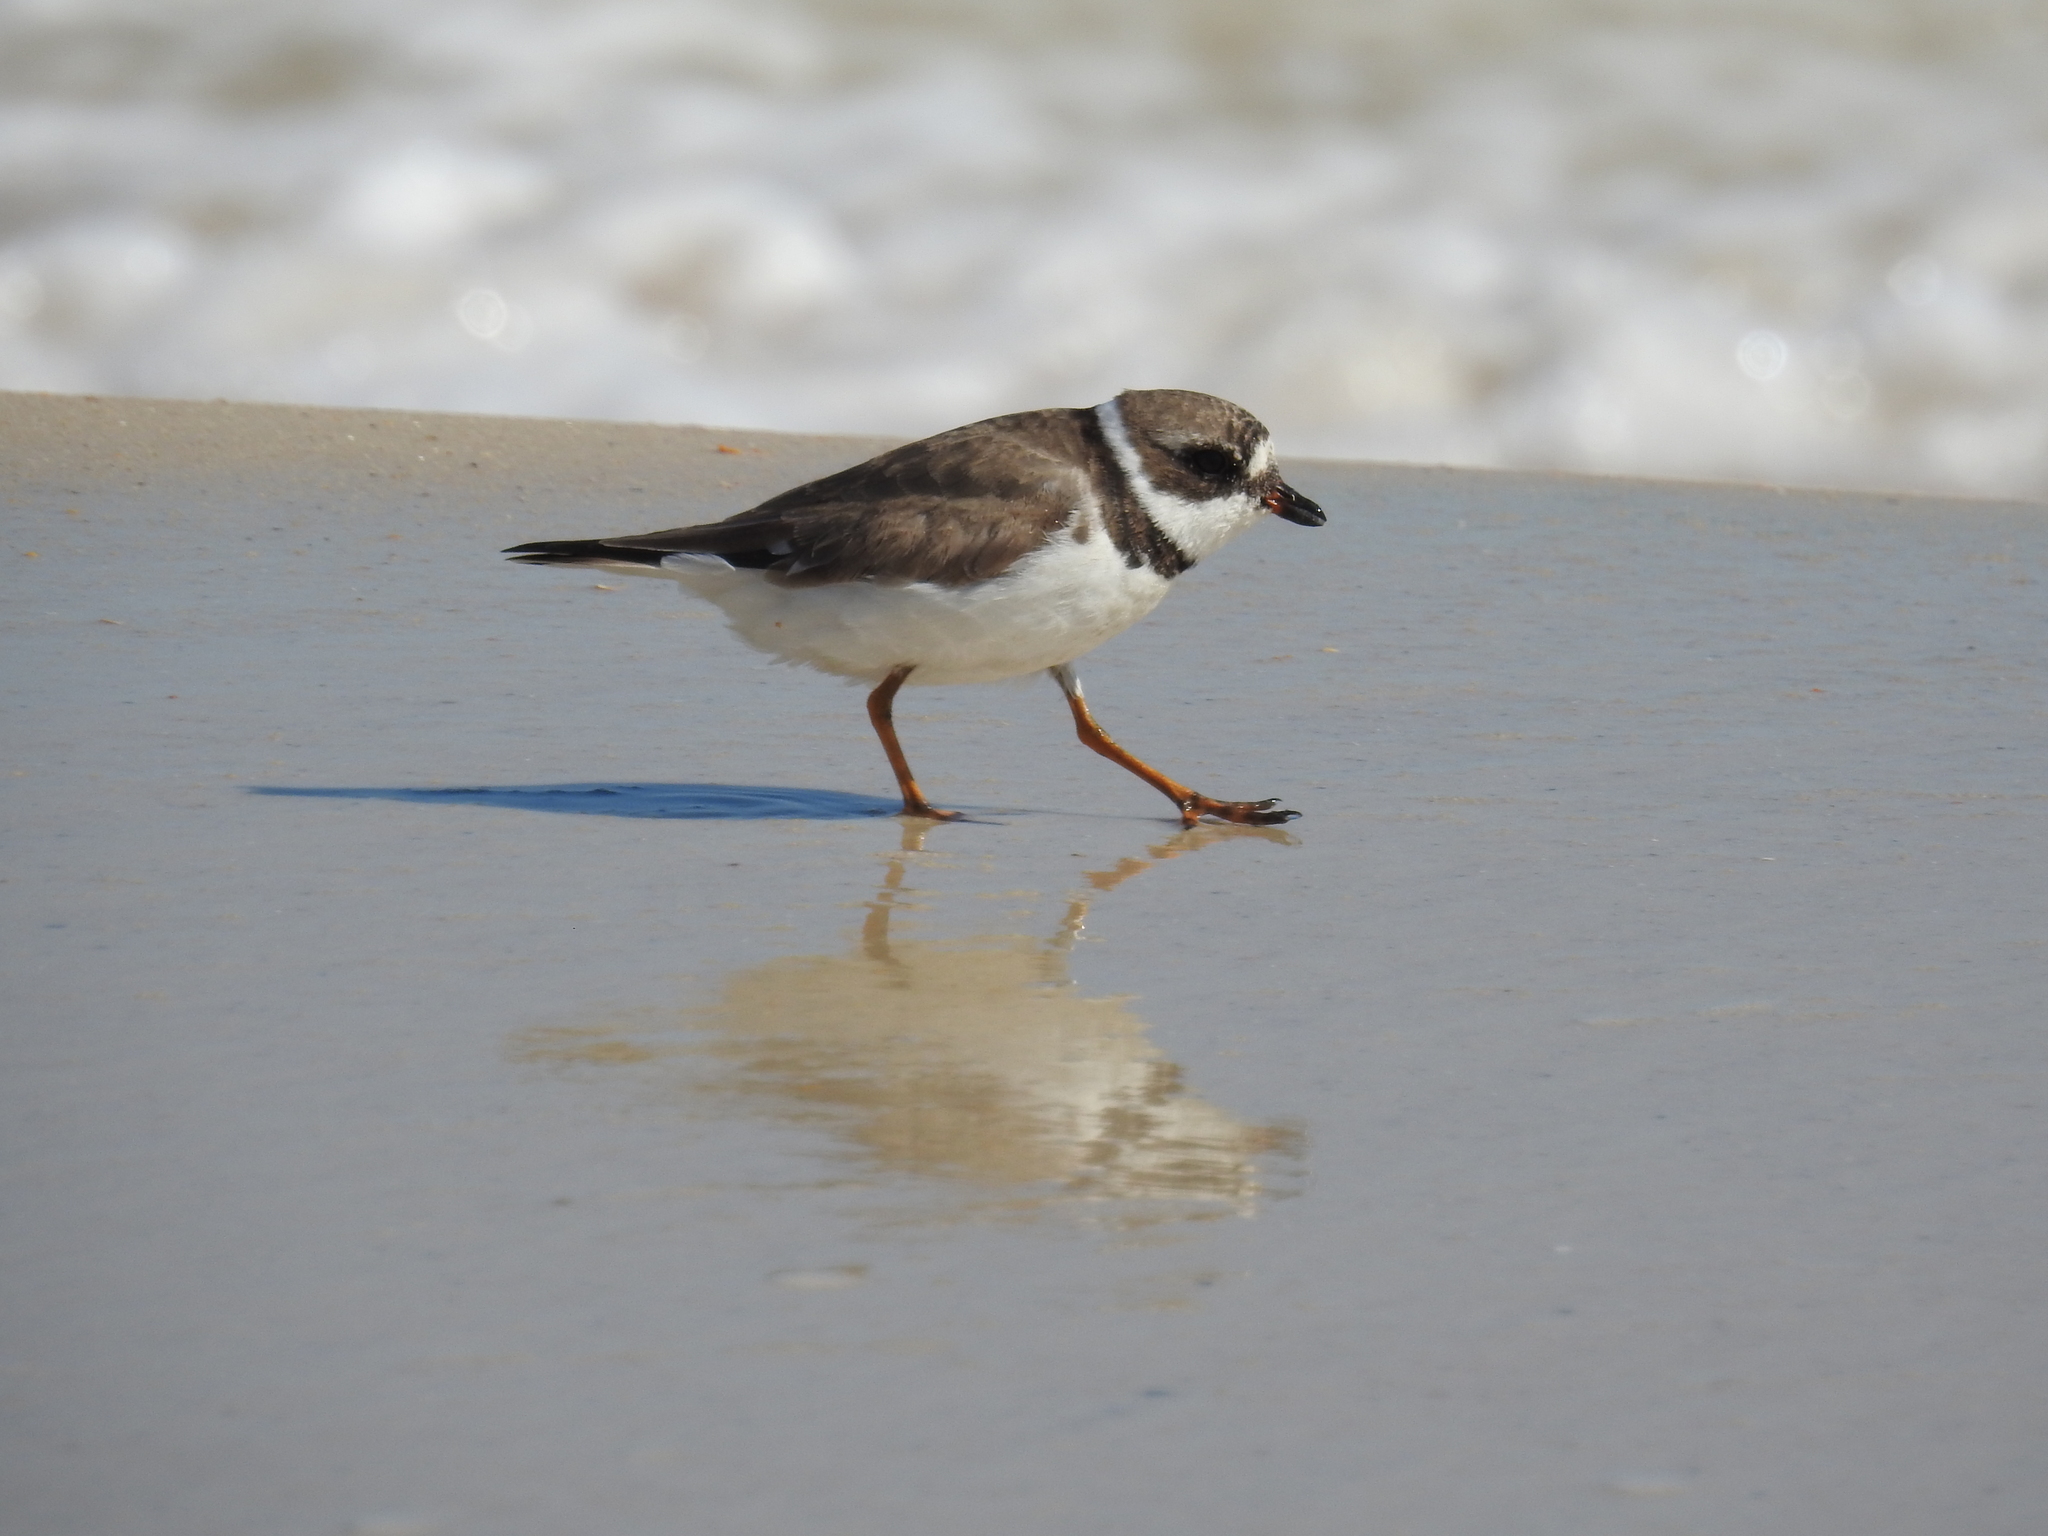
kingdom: Animalia
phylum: Chordata
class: Aves
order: Charadriiformes
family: Charadriidae
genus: Charadrius
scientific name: Charadrius semipalmatus
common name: Semipalmated plover
